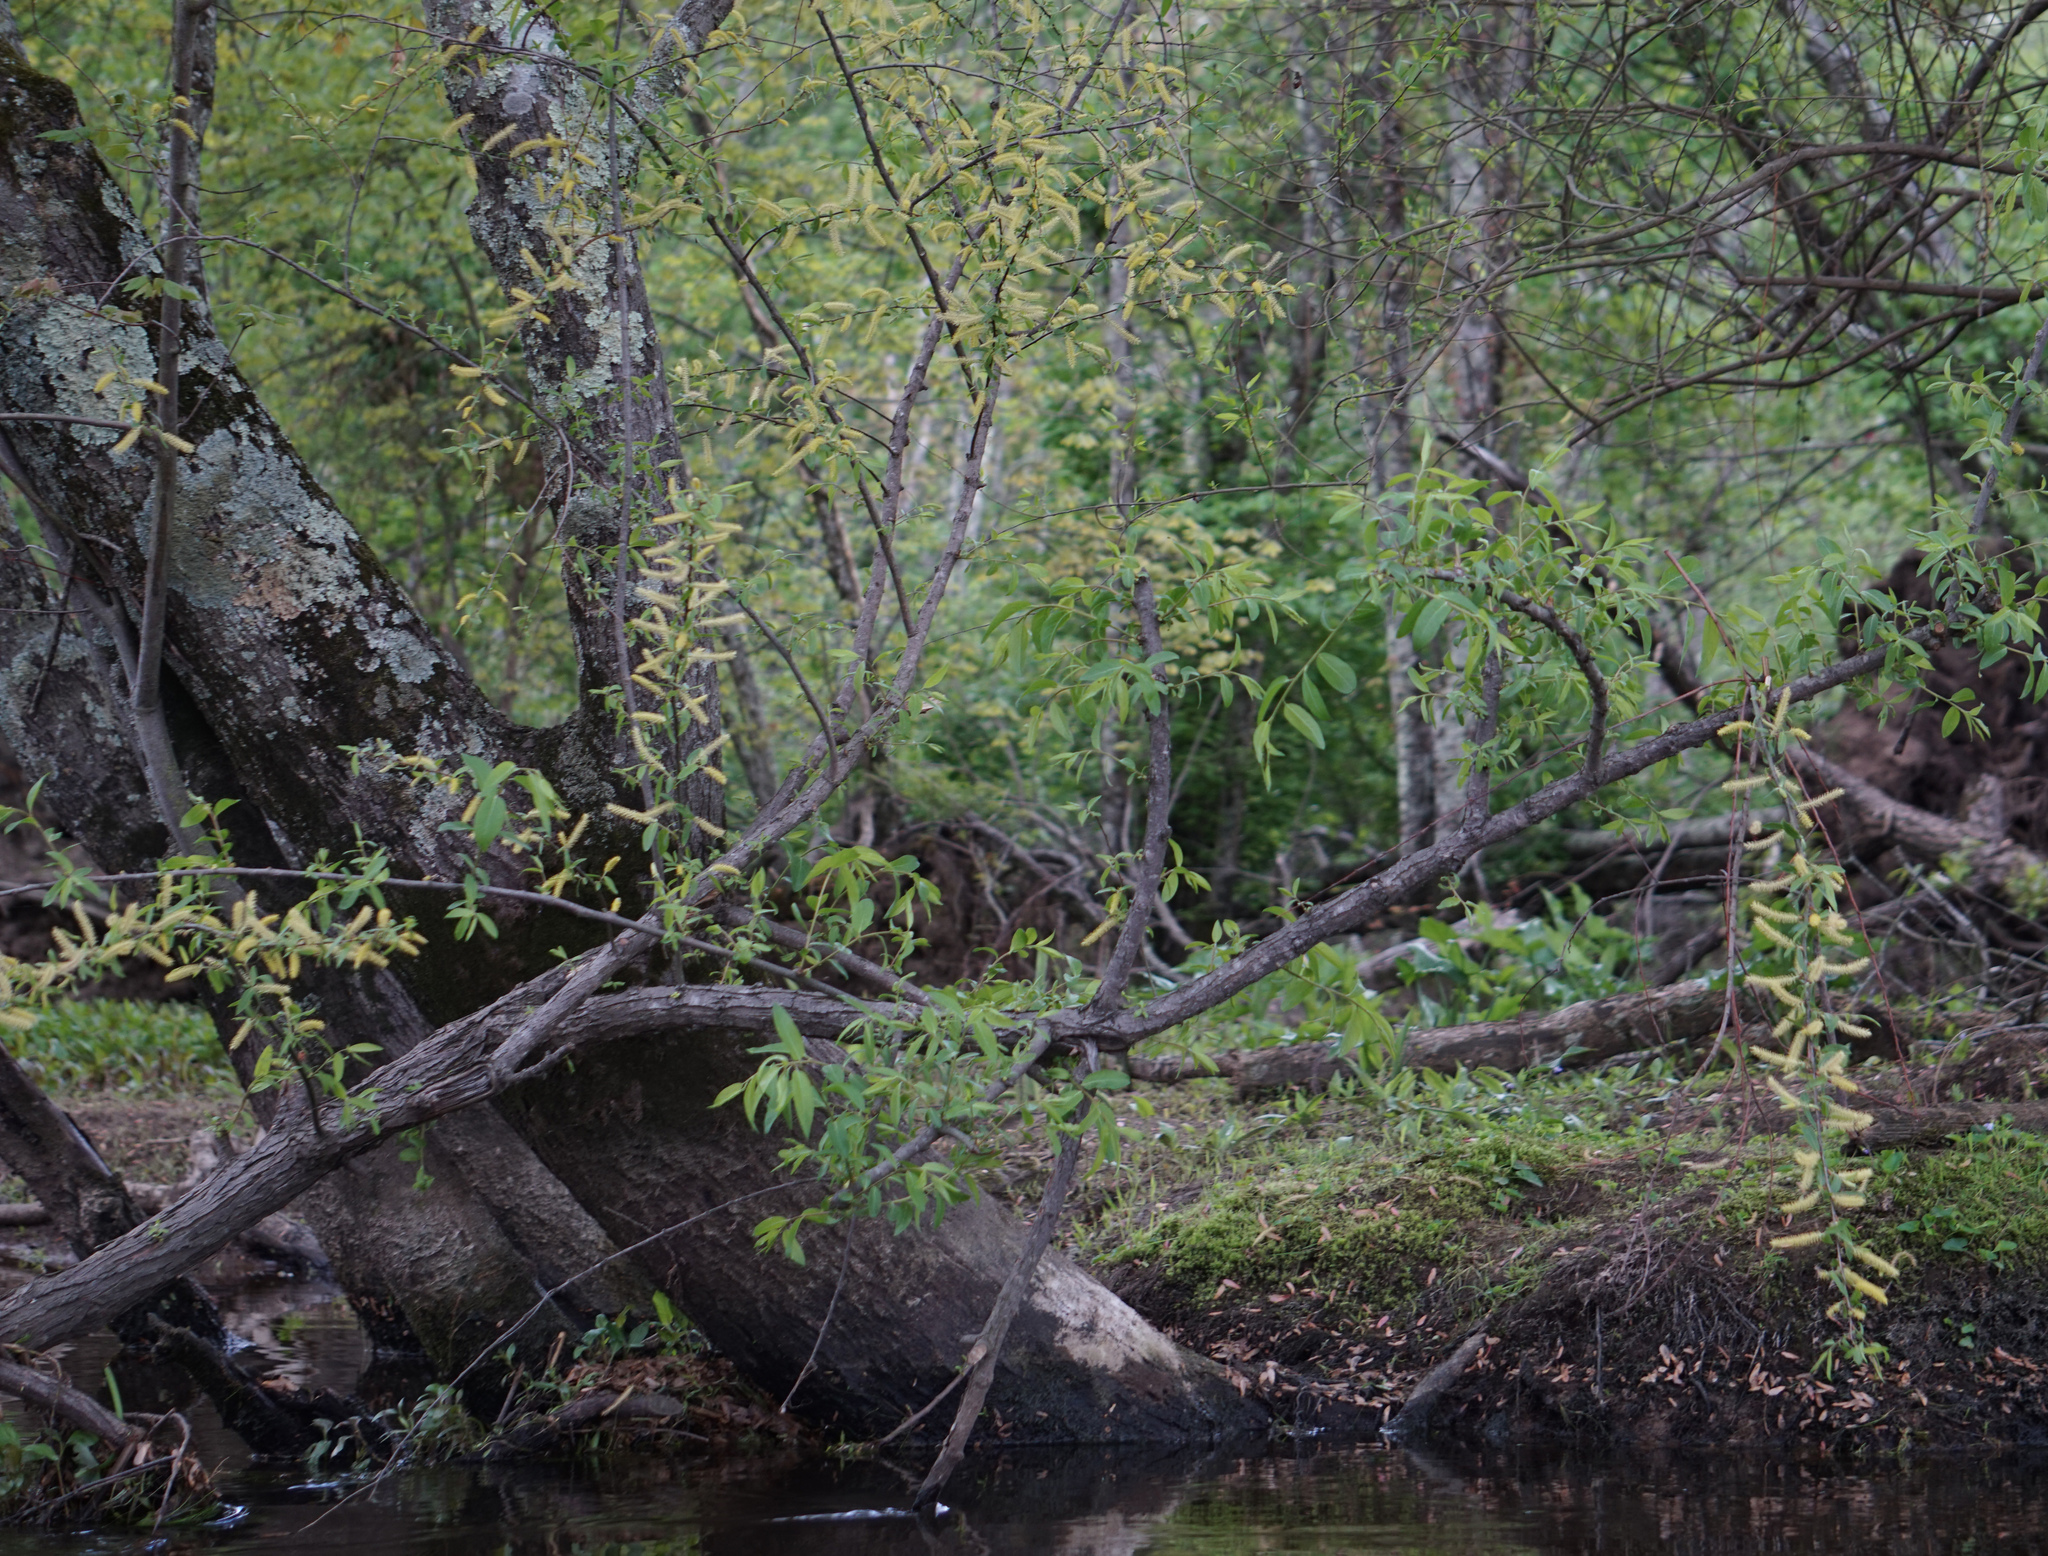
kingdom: Plantae
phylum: Tracheophyta
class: Magnoliopsida
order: Malpighiales
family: Salicaceae
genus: Salix
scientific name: Salix nigra
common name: Black willow
